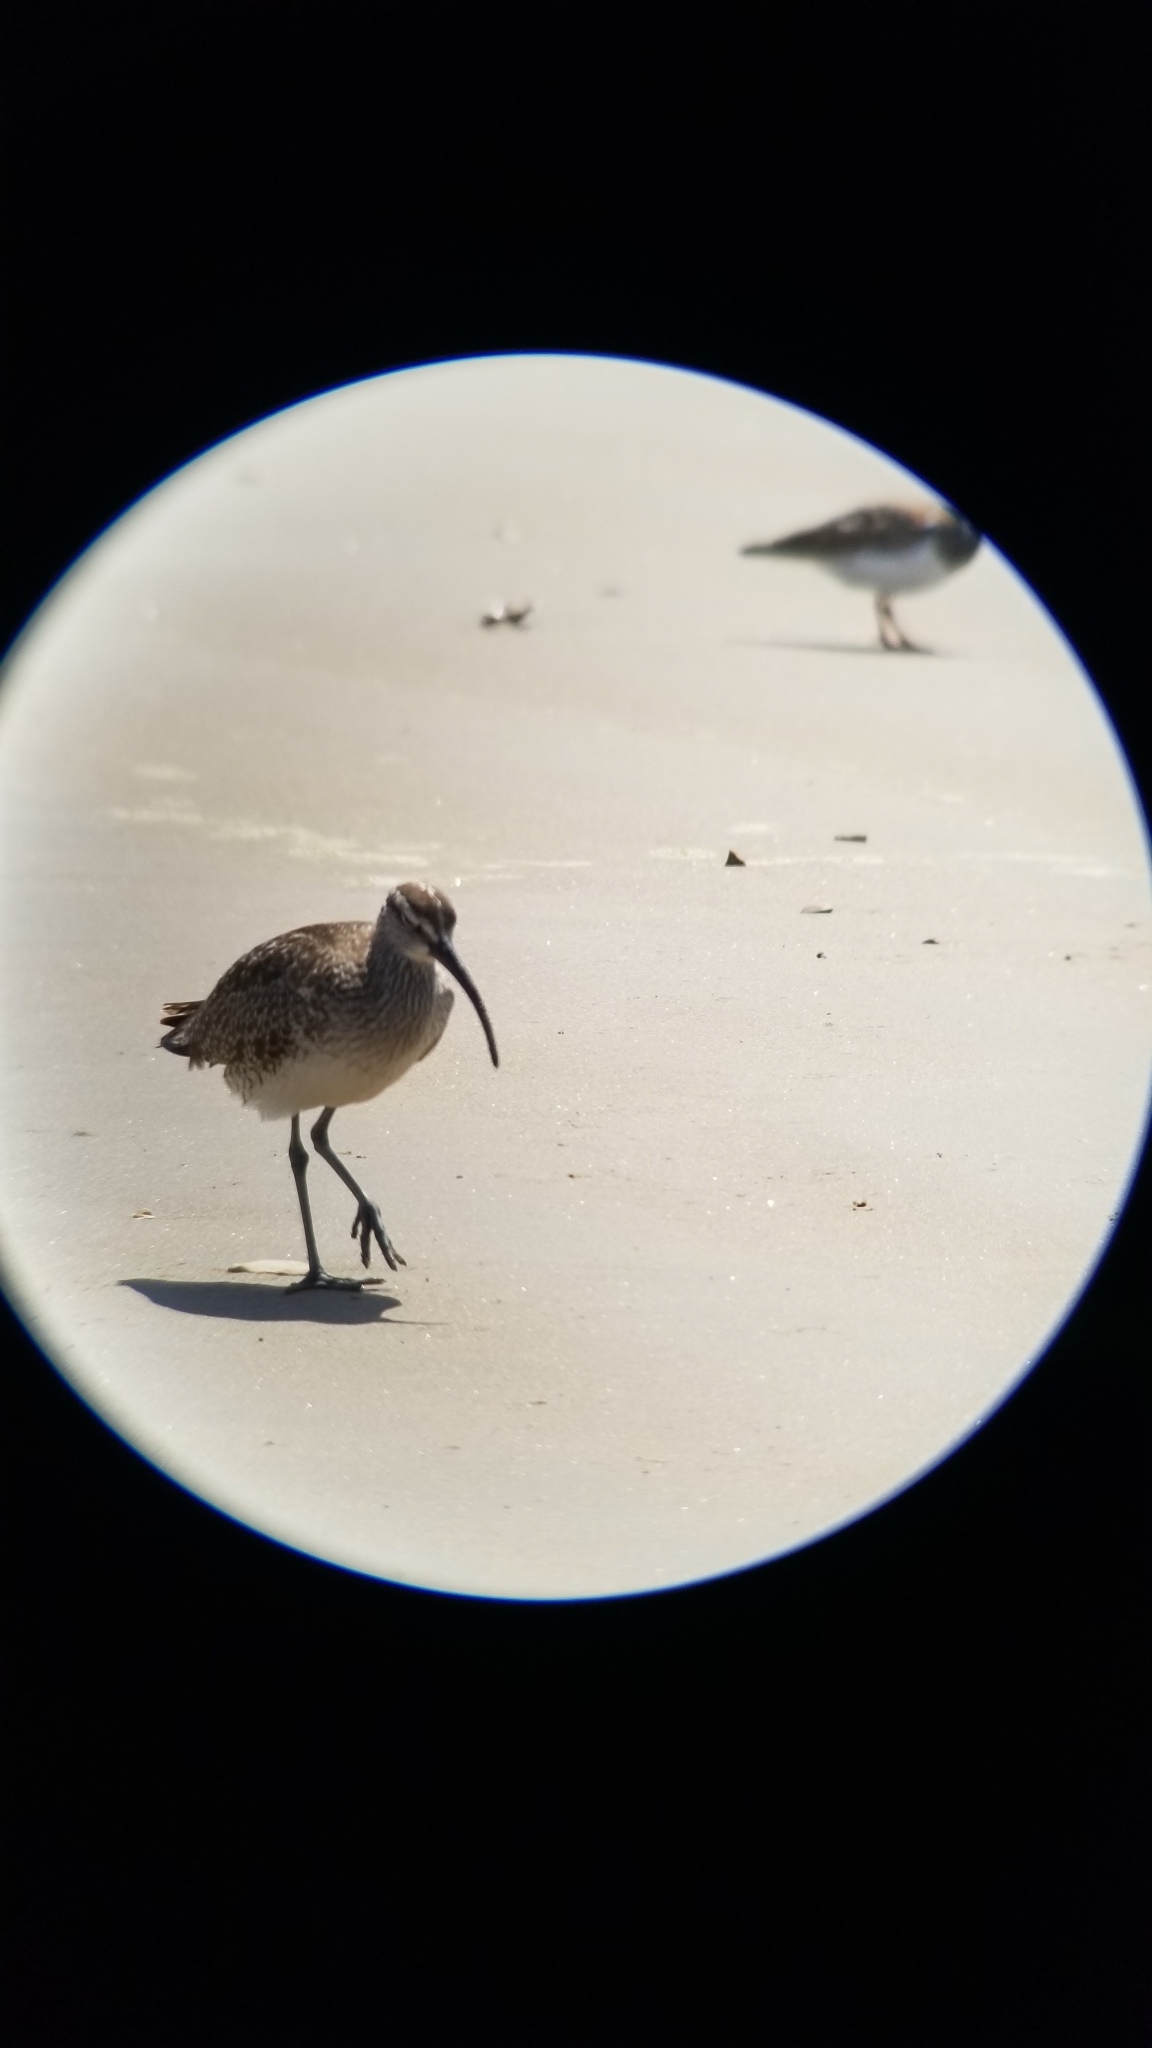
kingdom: Animalia
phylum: Chordata
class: Aves
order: Charadriiformes
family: Scolopacidae
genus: Numenius
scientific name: Numenius phaeopus
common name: Whimbrel
